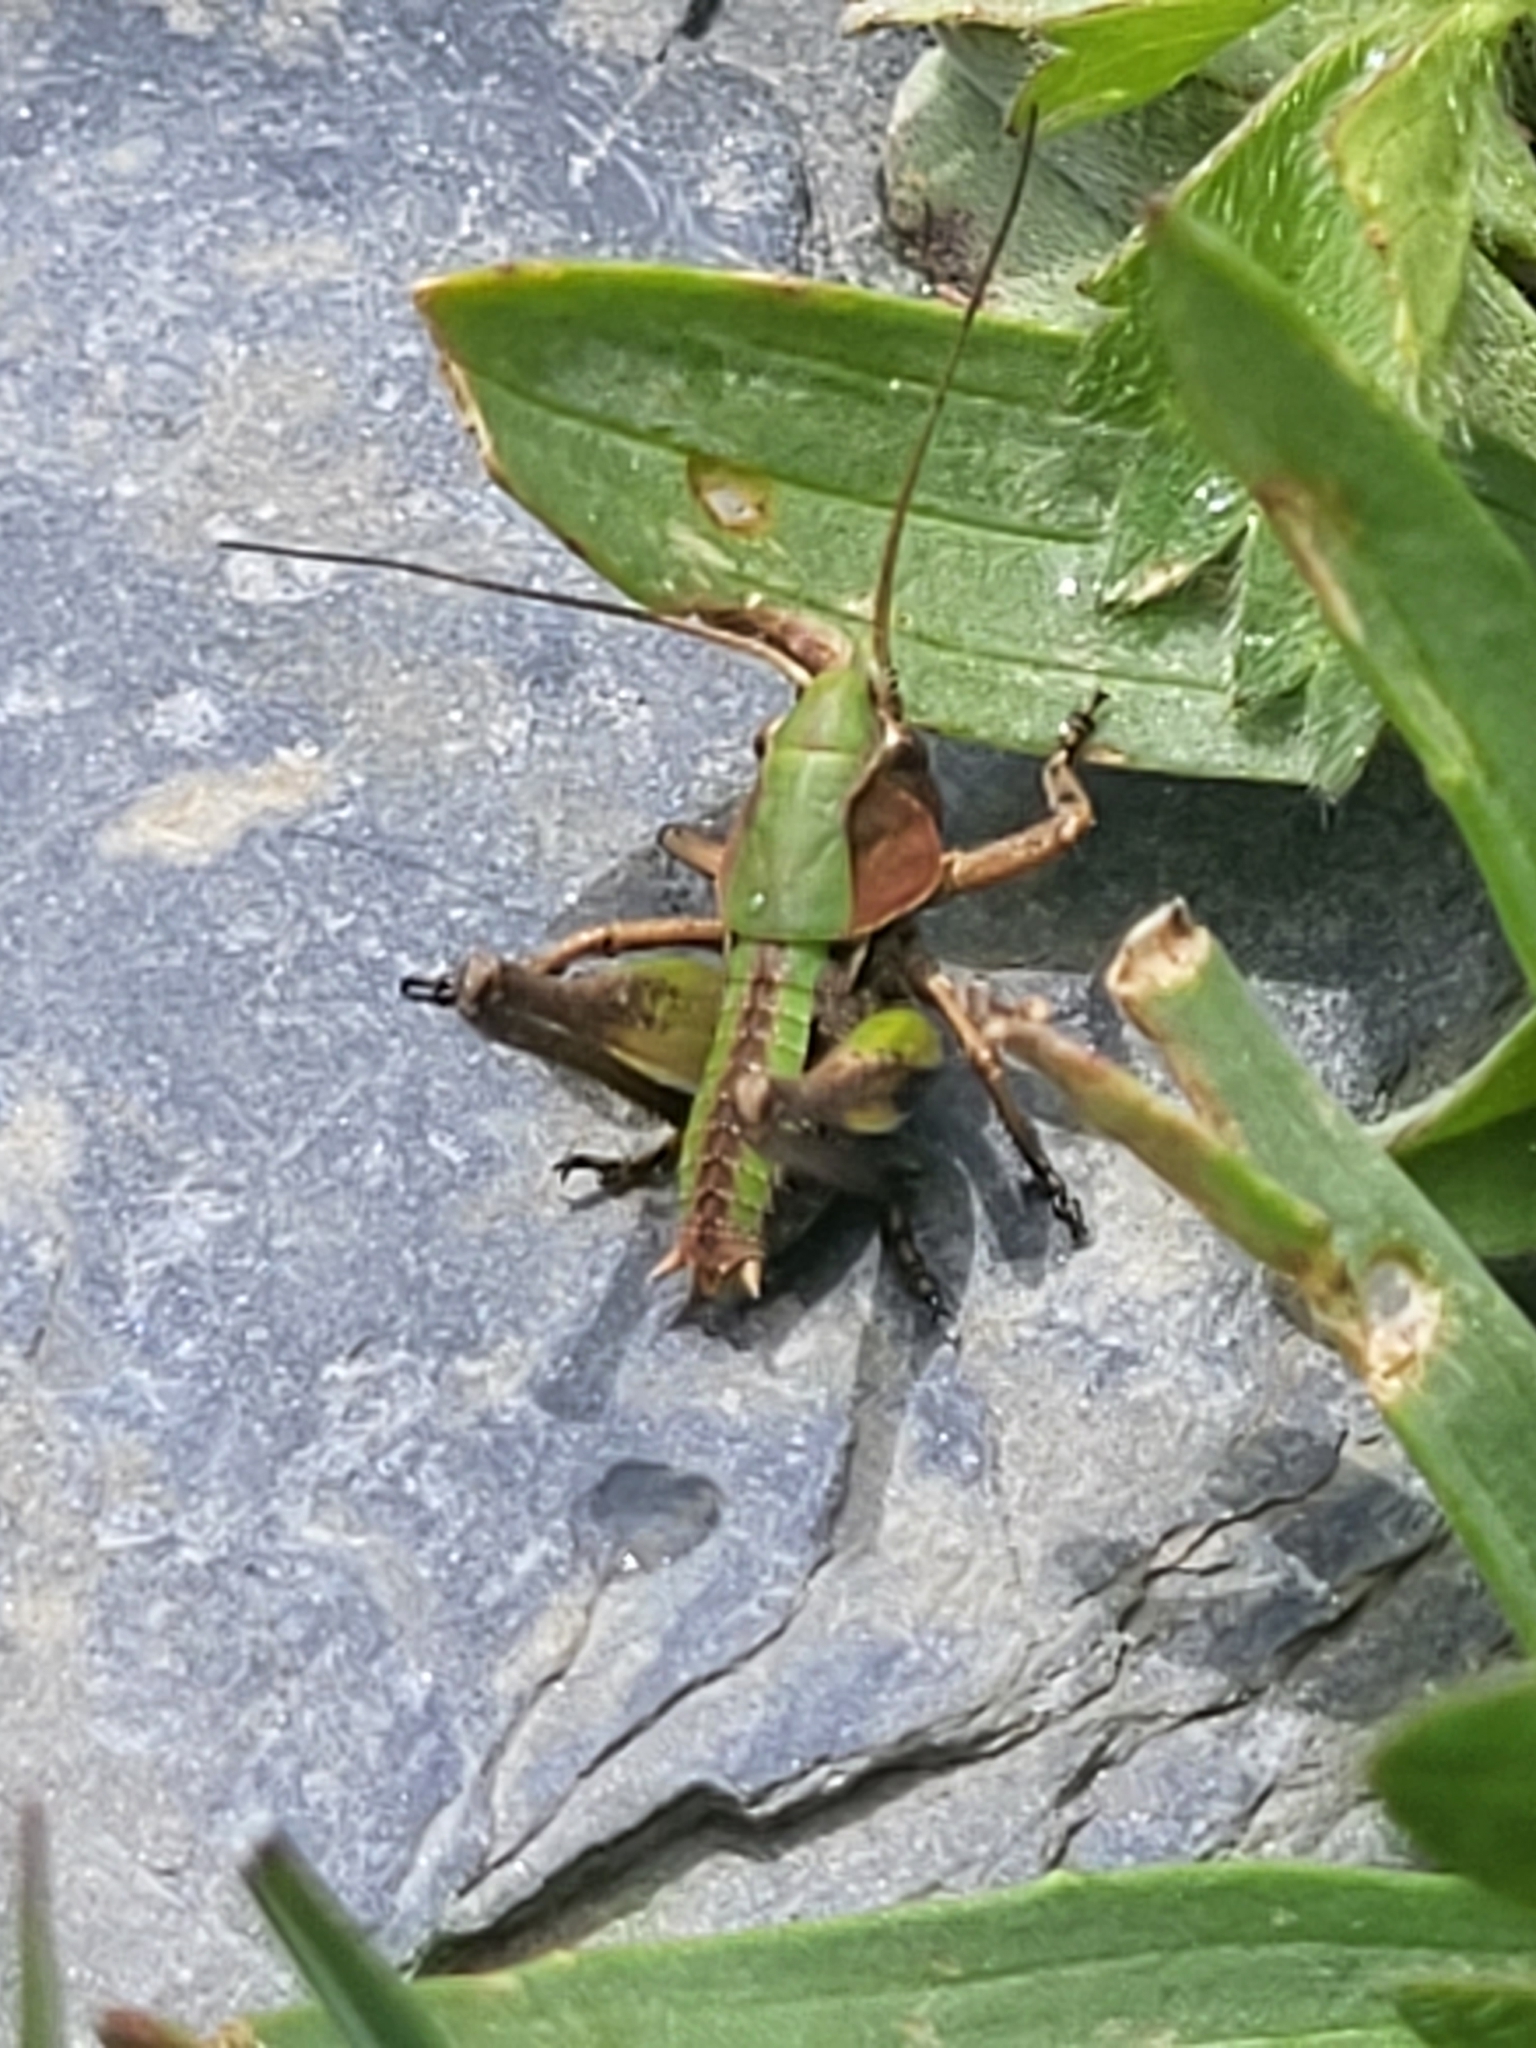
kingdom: Animalia
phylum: Arthropoda
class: Insecta
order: Orthoptera
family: Tettigoniidae
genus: Decticus
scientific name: Decticus verrucivorus
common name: Wart-biter
